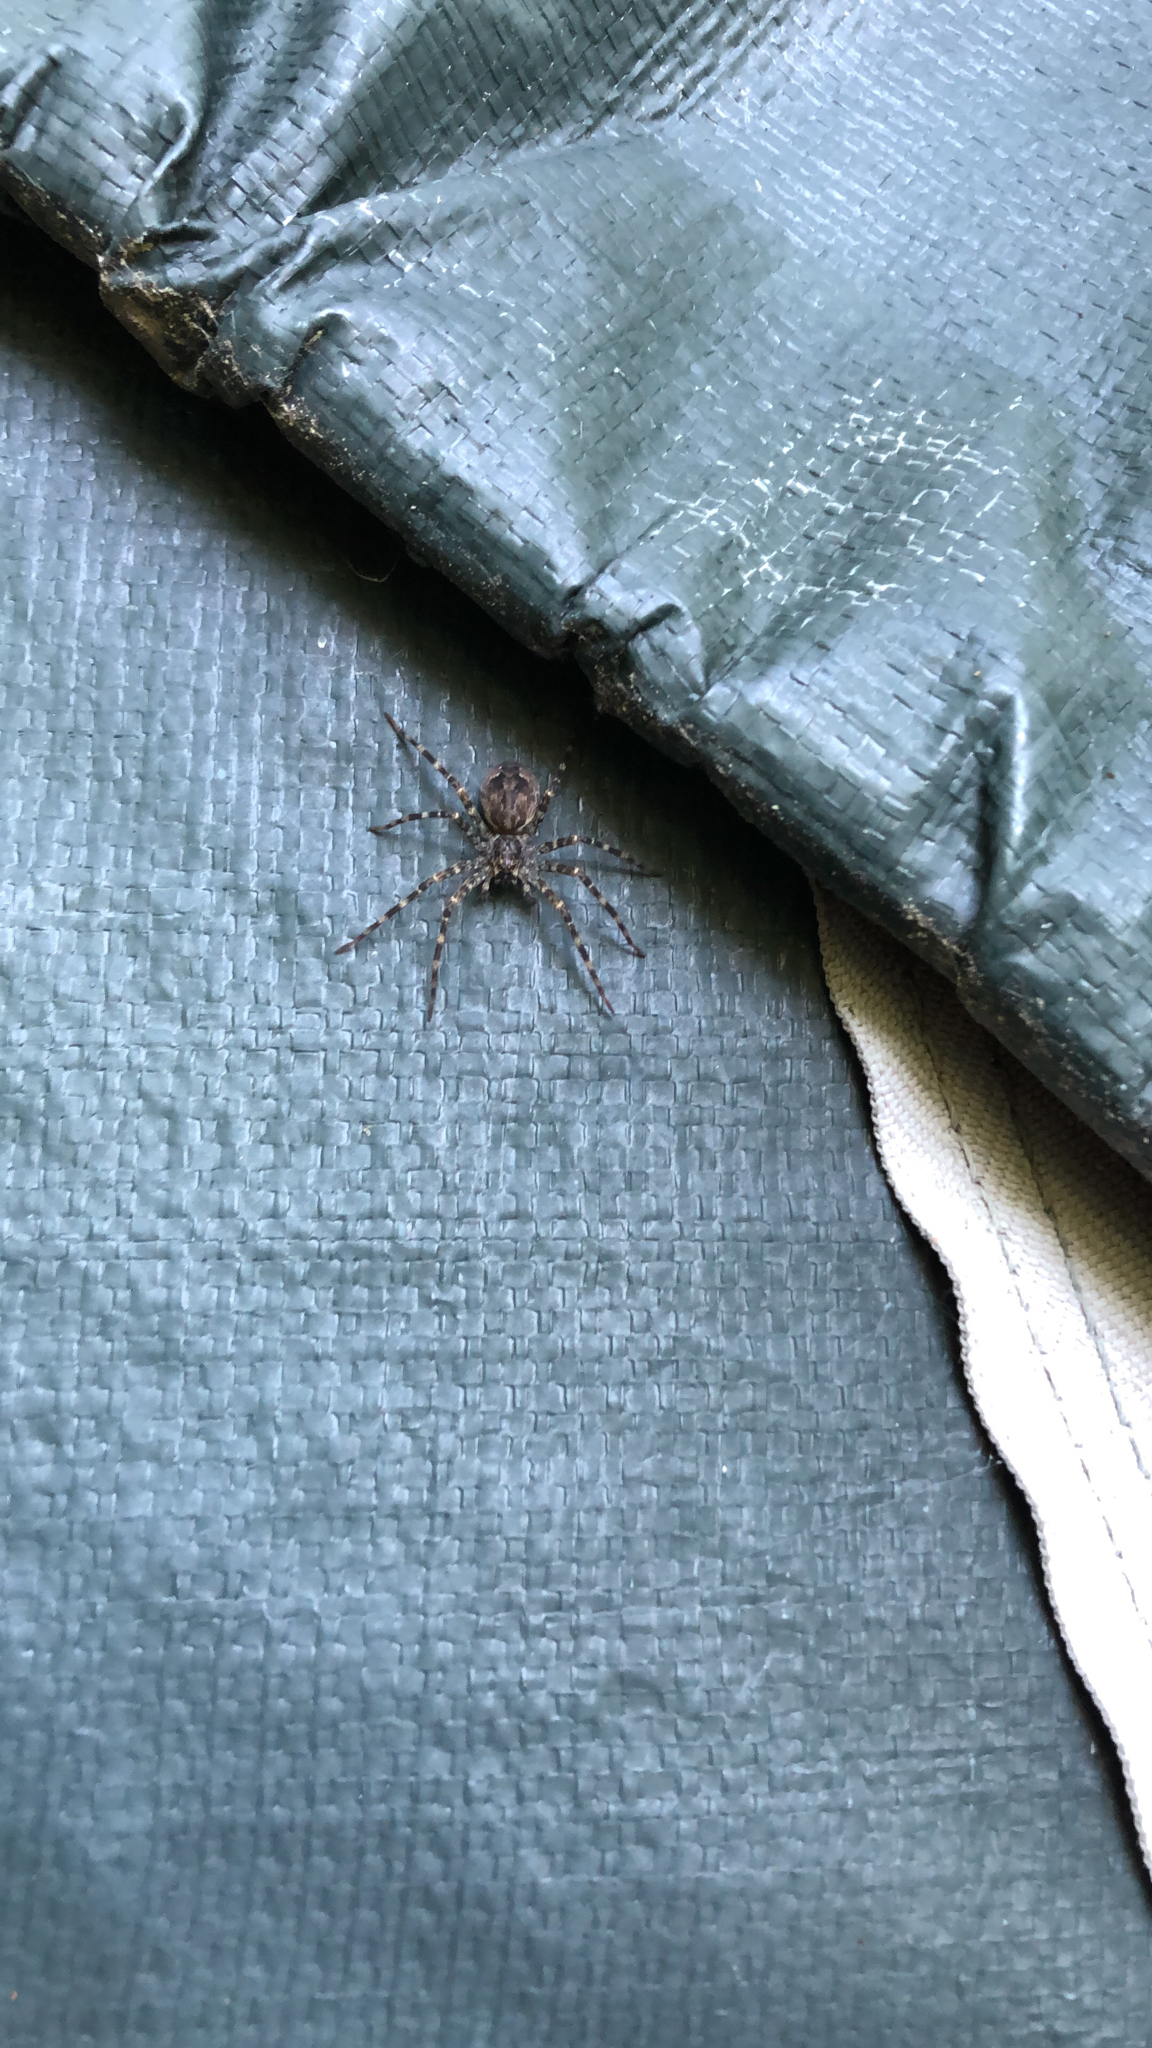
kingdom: Animalia
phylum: Arthropoda
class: Arachnida
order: Araneae
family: Pisauridae
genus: Dolomedes
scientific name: Dolomedes tenebrosus
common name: Dark fishing spider
